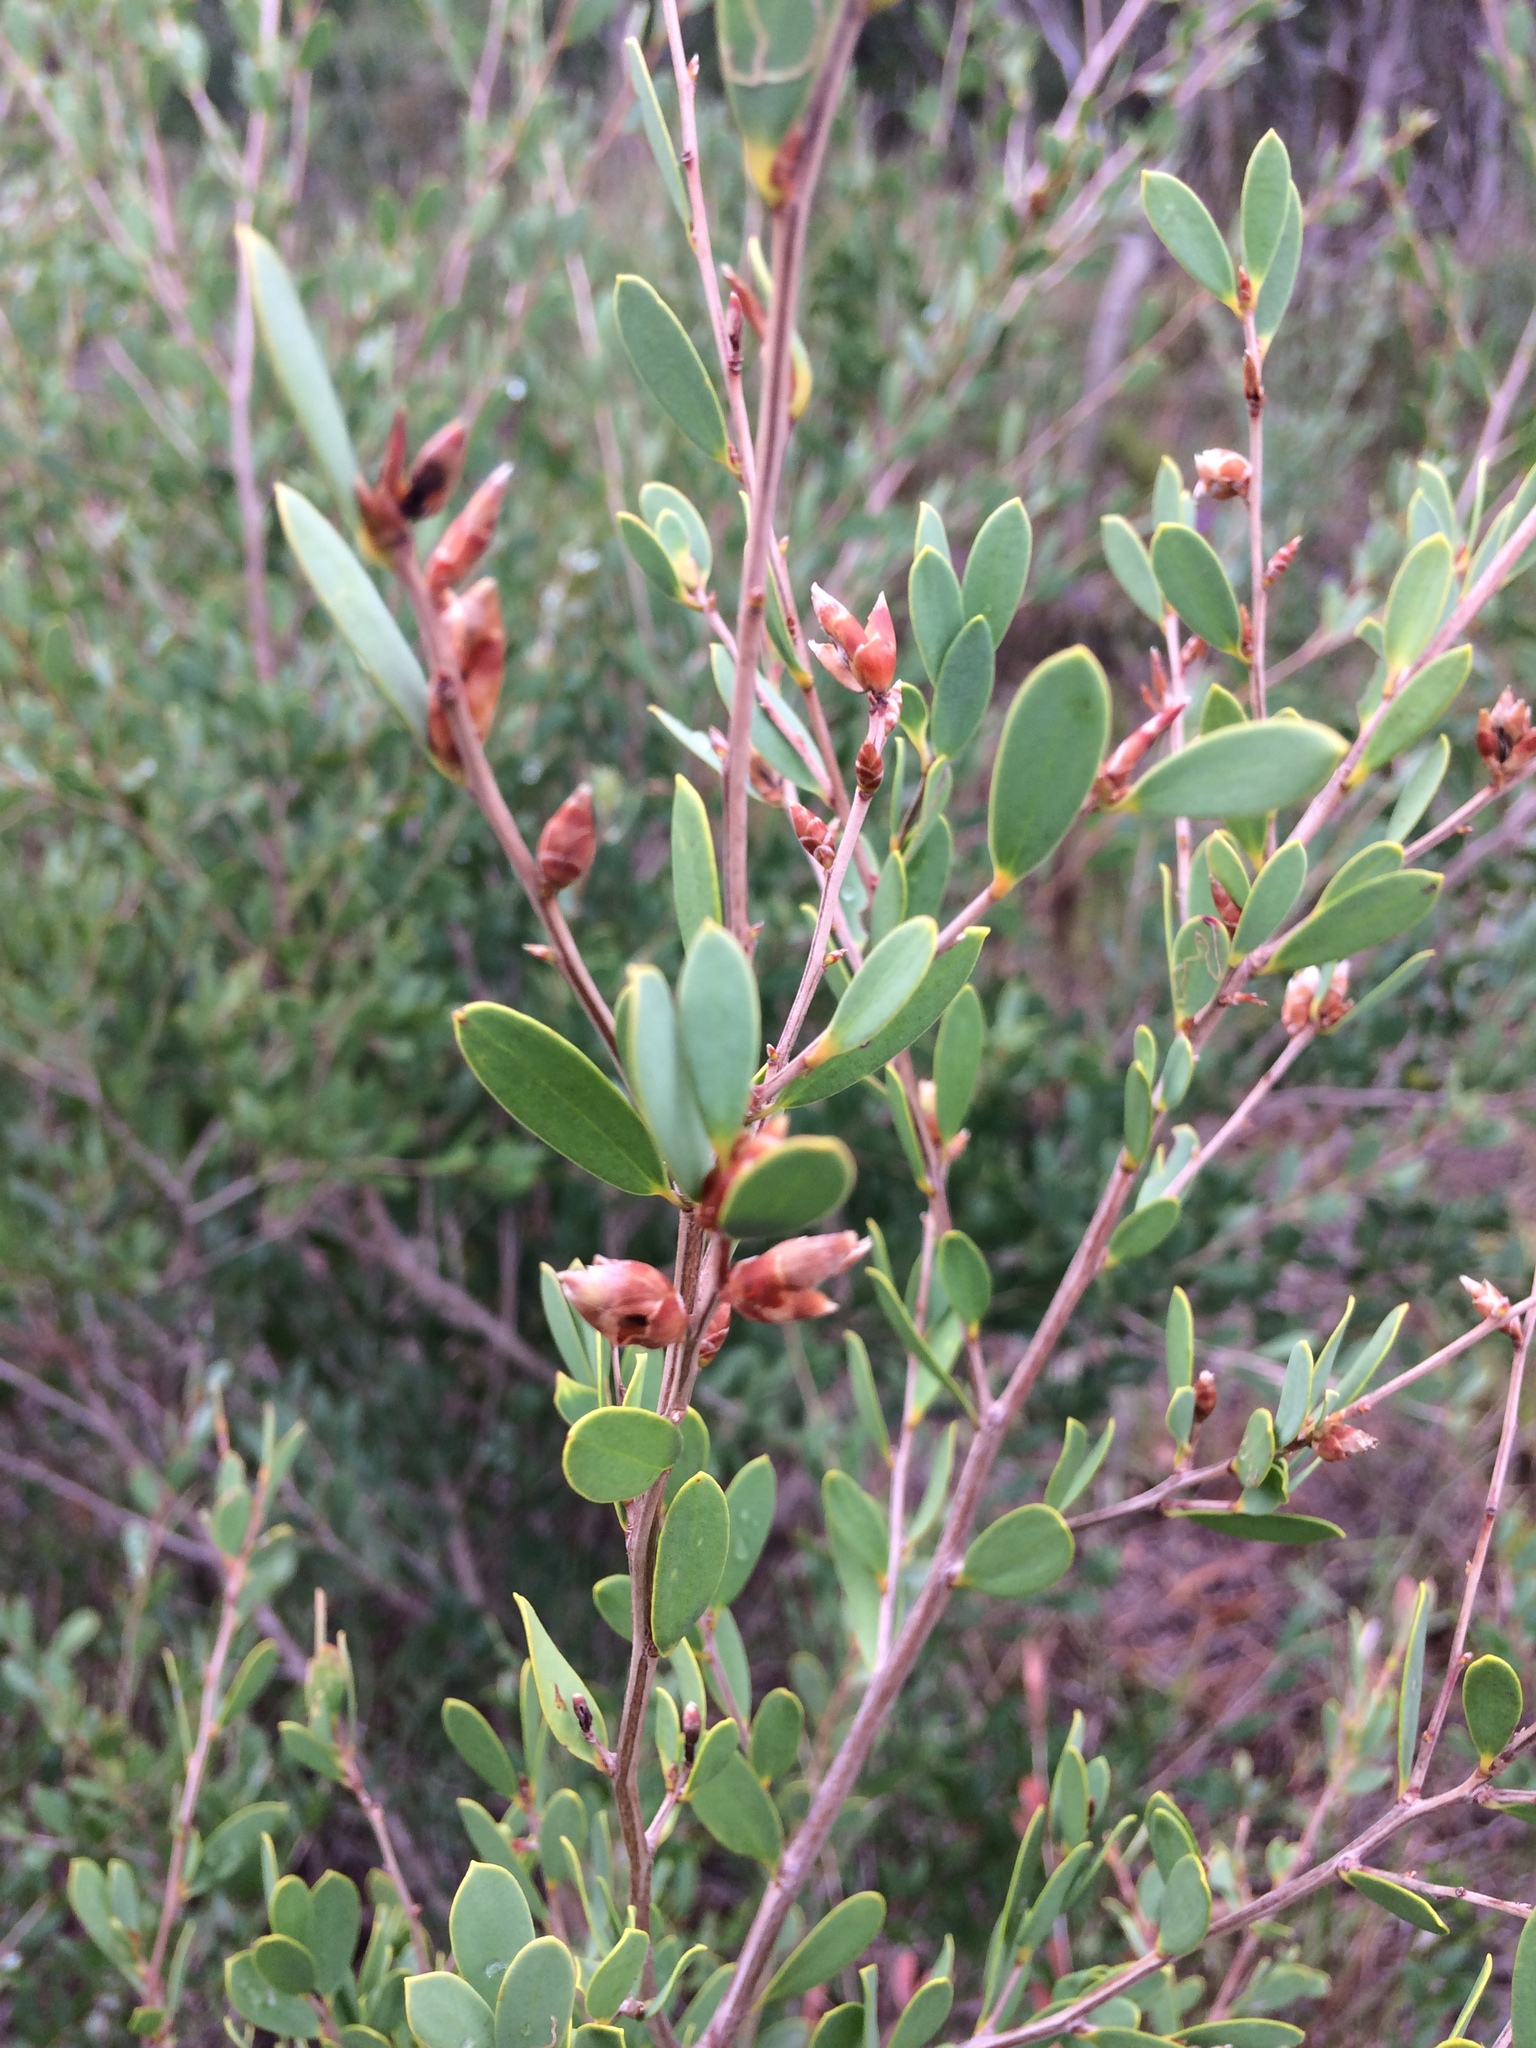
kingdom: Plantae
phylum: Tracheophyta
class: Magnoliopsida
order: Myrtales
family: Myrtaceae
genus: Leptospermum
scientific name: Leptospermum laevigatum
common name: Australian teatree
